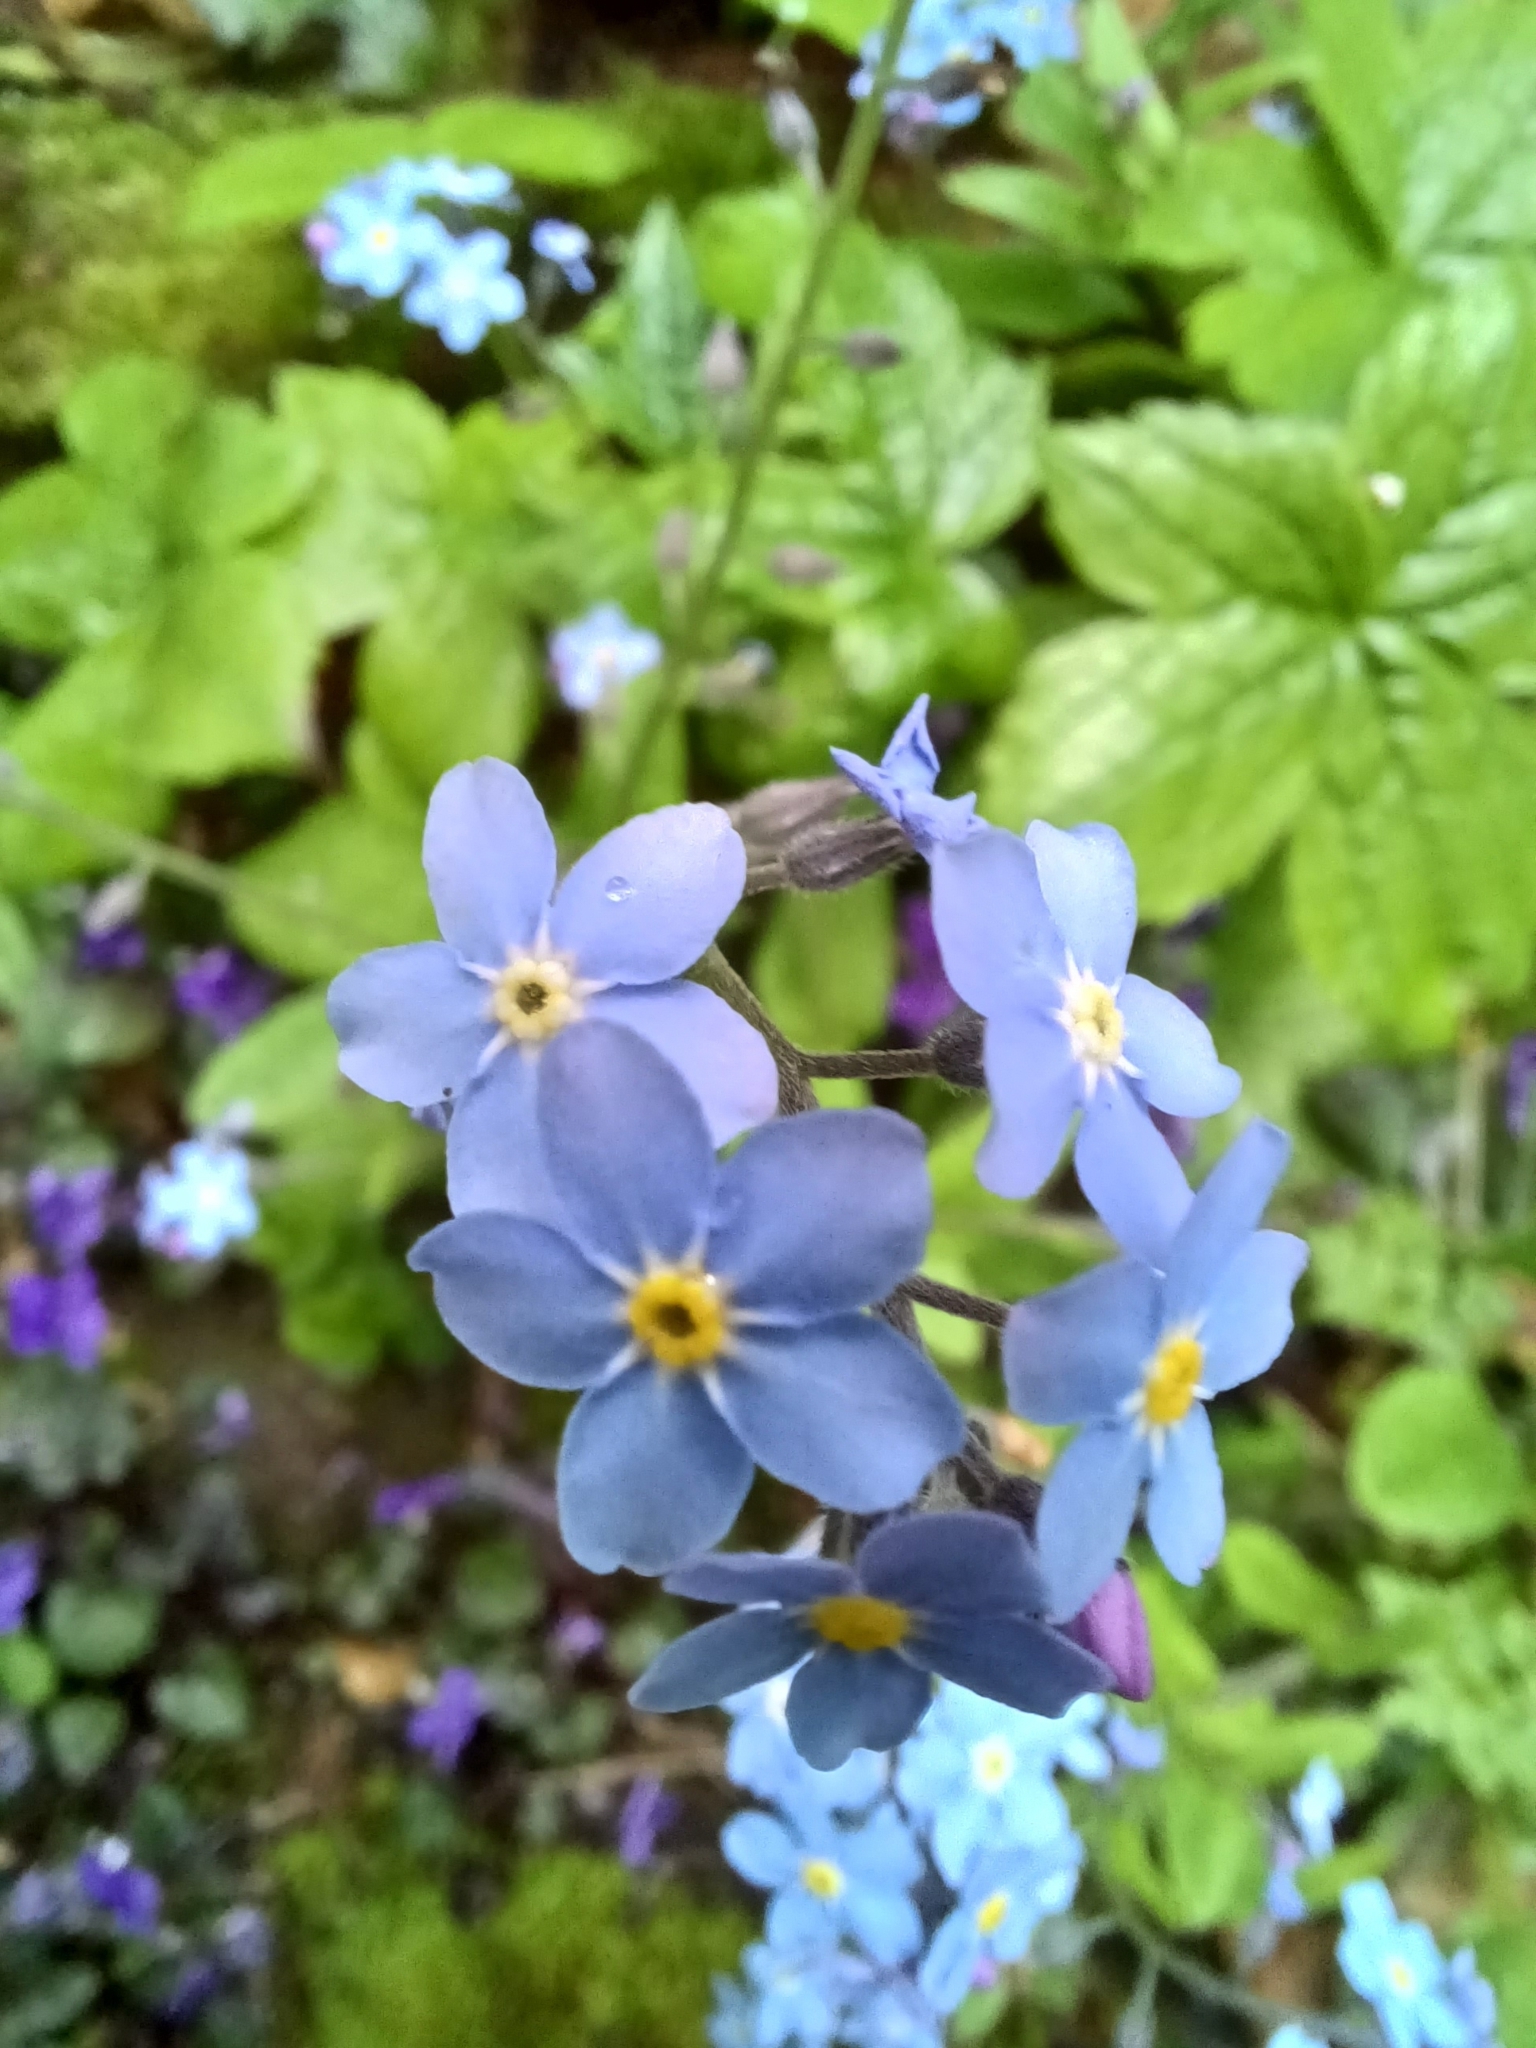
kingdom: Plantae
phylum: Tracheophyta
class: Magnoliopsida
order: Boraginales
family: Boraginaceae
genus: Myosotis
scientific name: Myosotis sylvatica
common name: Wood forget-me-not
